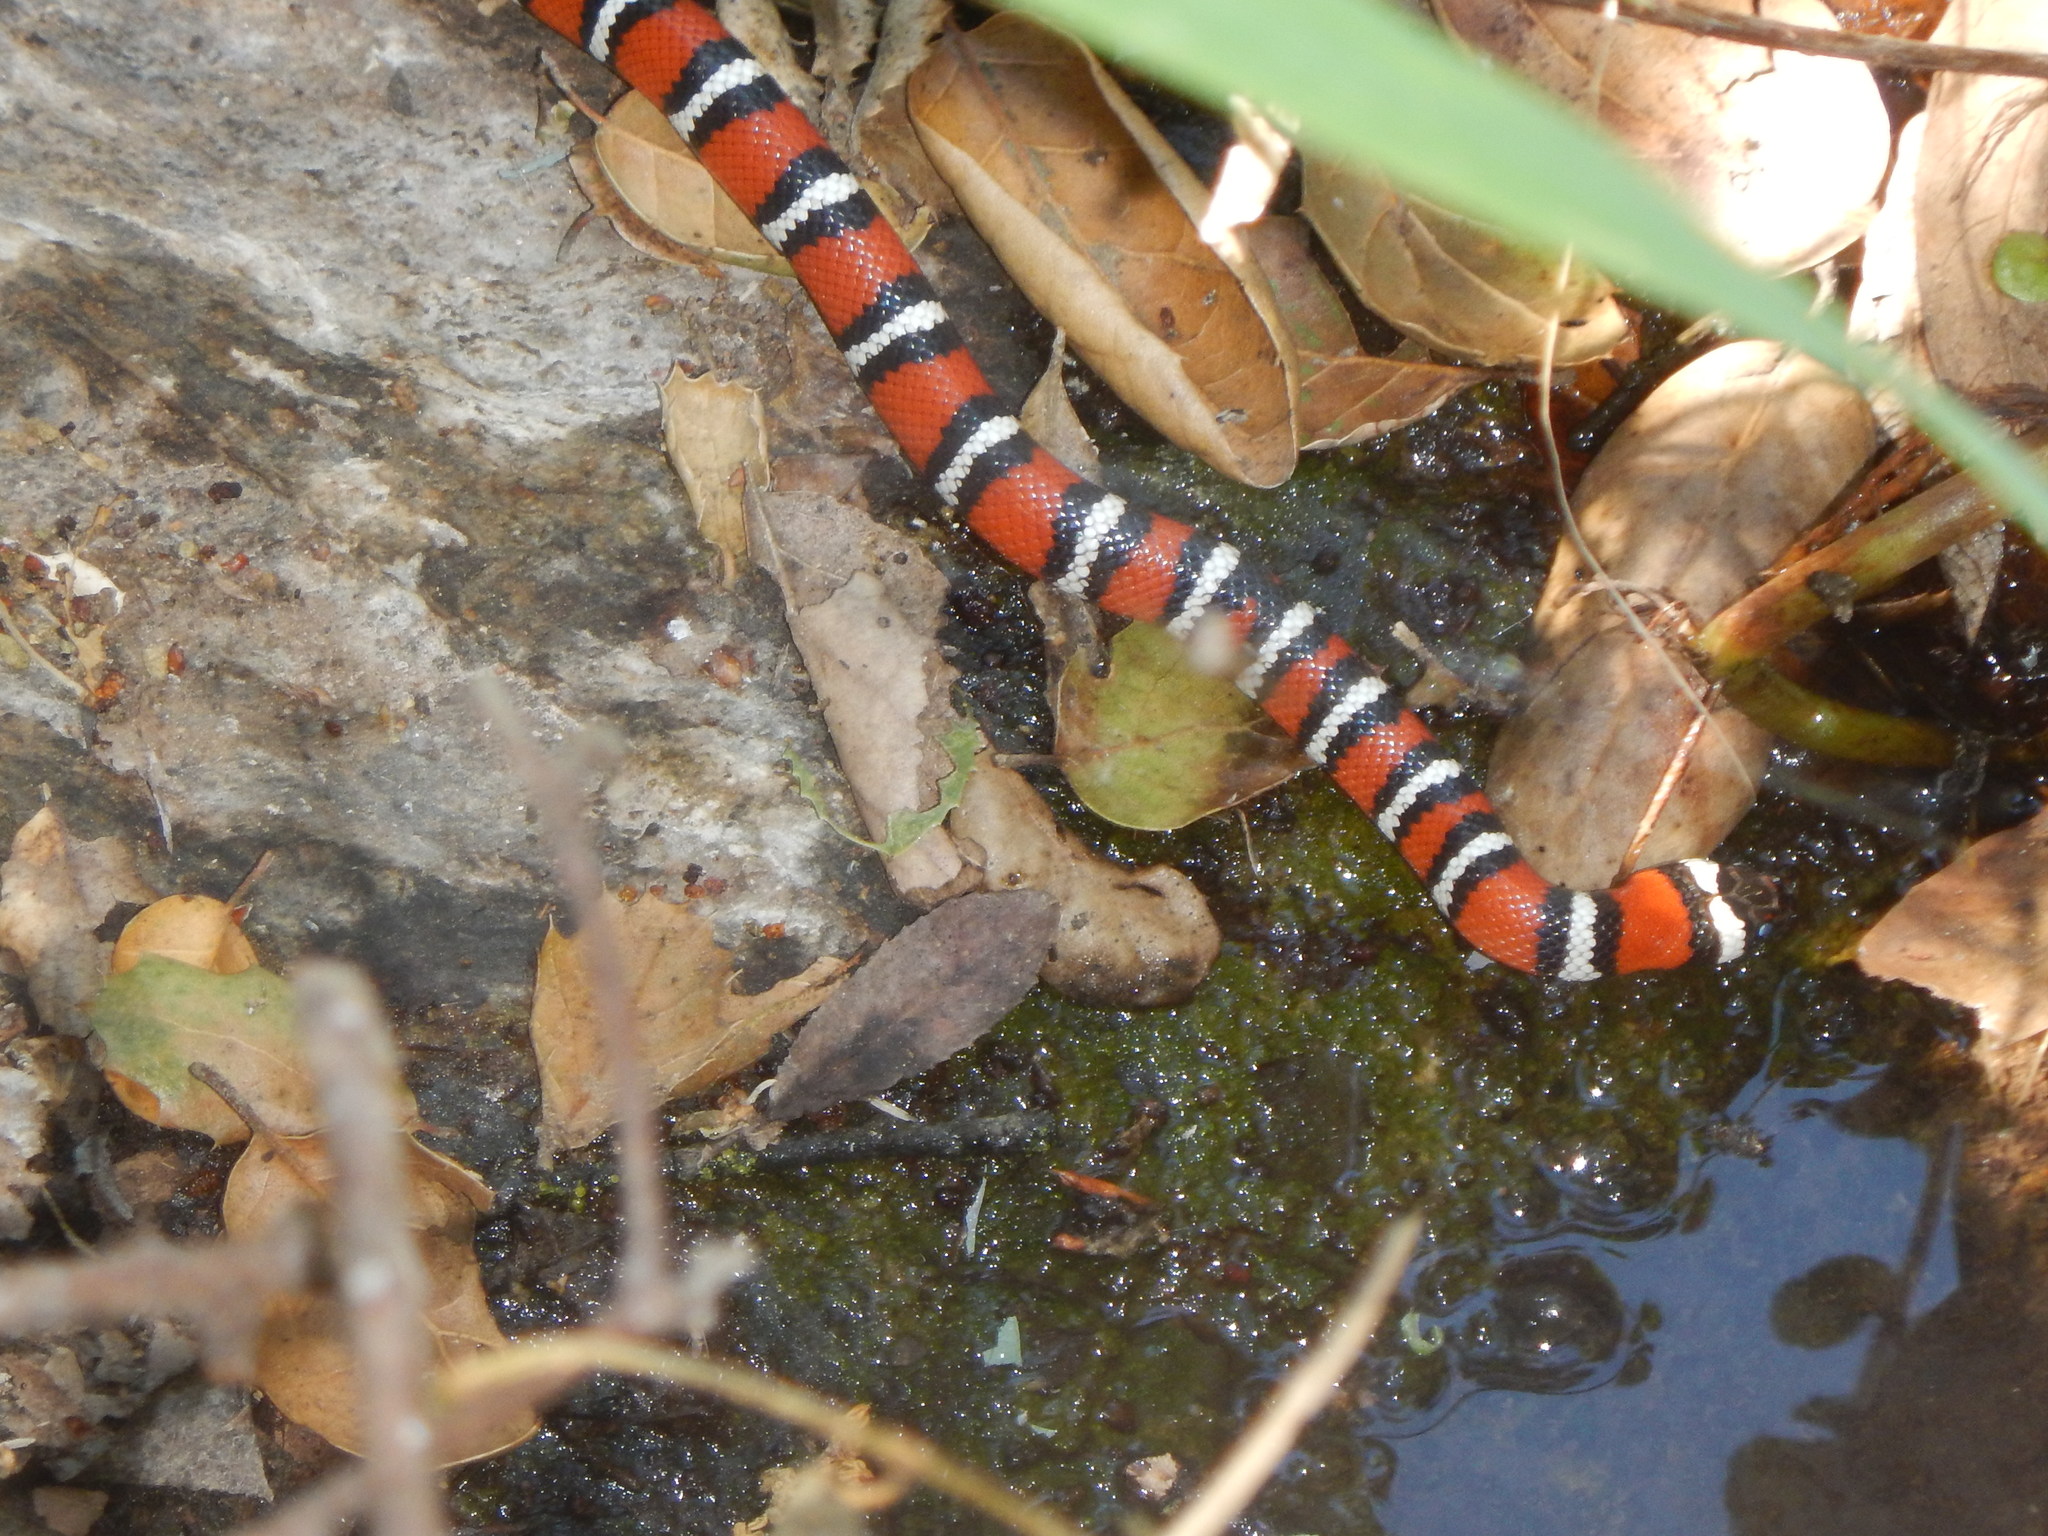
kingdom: Animalia
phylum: Chordata
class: Squamata
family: Colubridae
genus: Lampropeltis
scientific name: Lampropeltis zonata
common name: California mountain kingsnake
